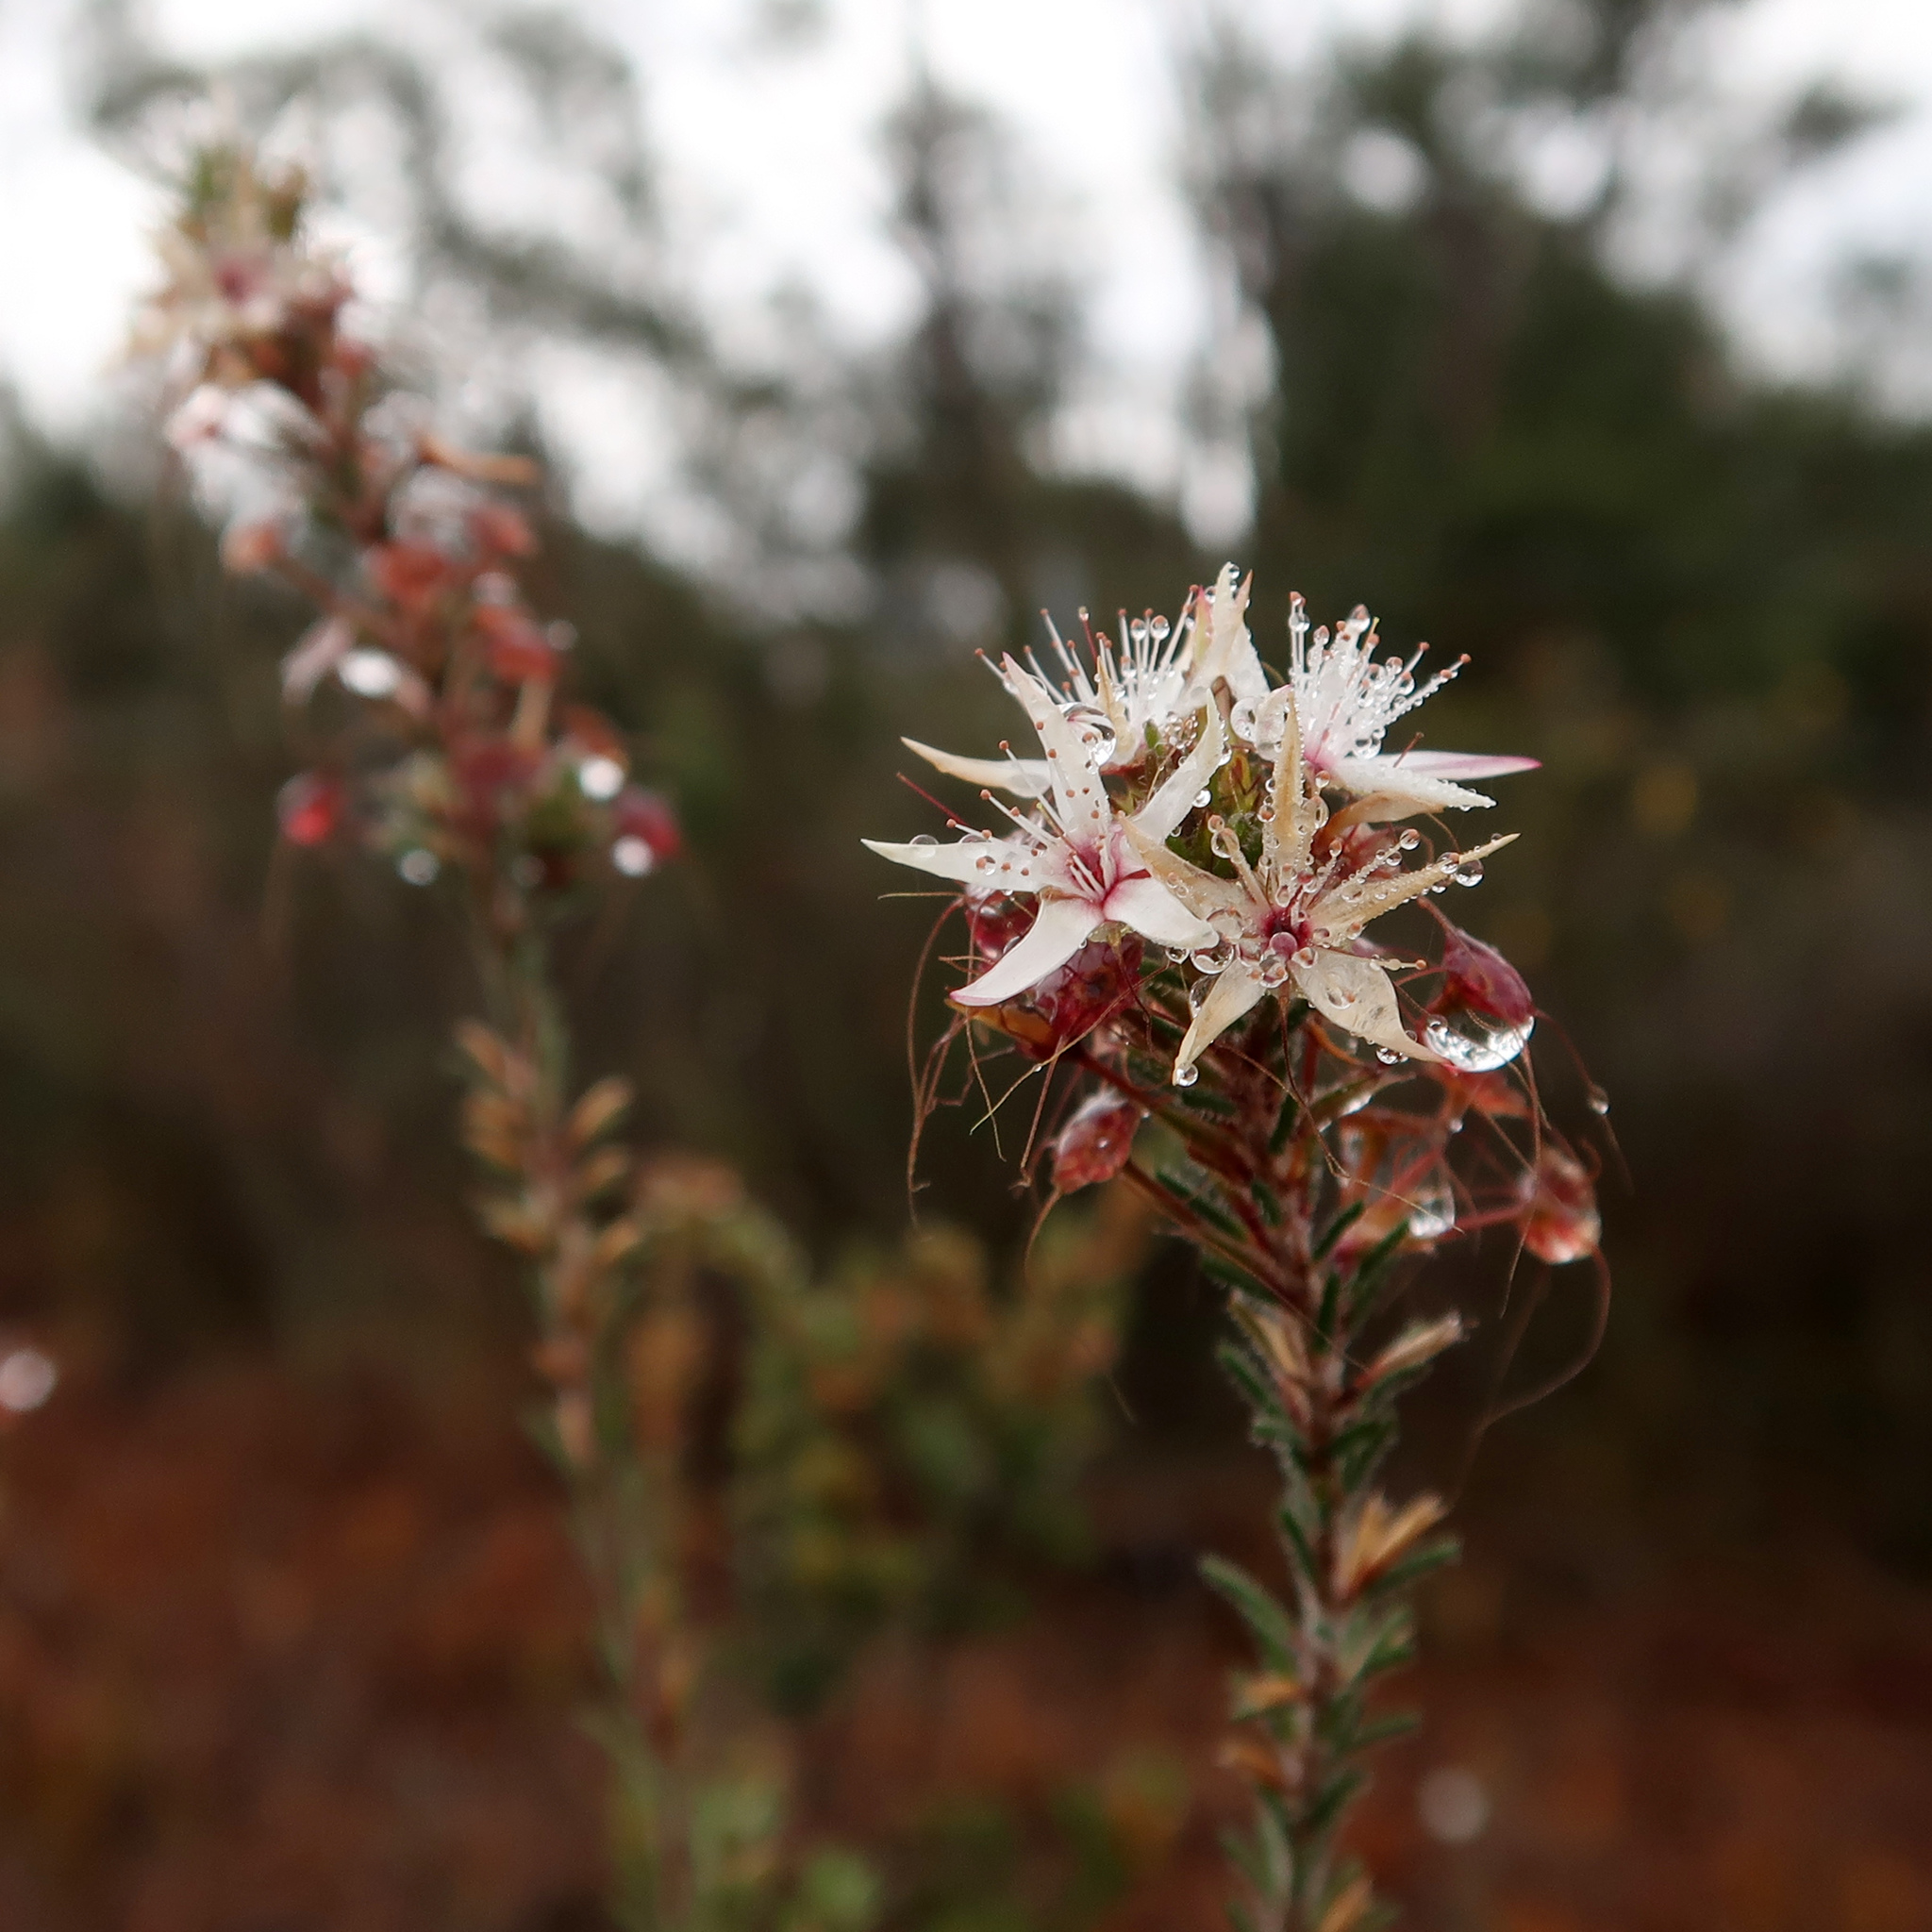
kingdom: Plantae
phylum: Tracheophyta
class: Magnoliopsida
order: Myrtales
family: Myrtaceae
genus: Calytrix
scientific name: Calytrix tetragona
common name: Common fringe myrtle
